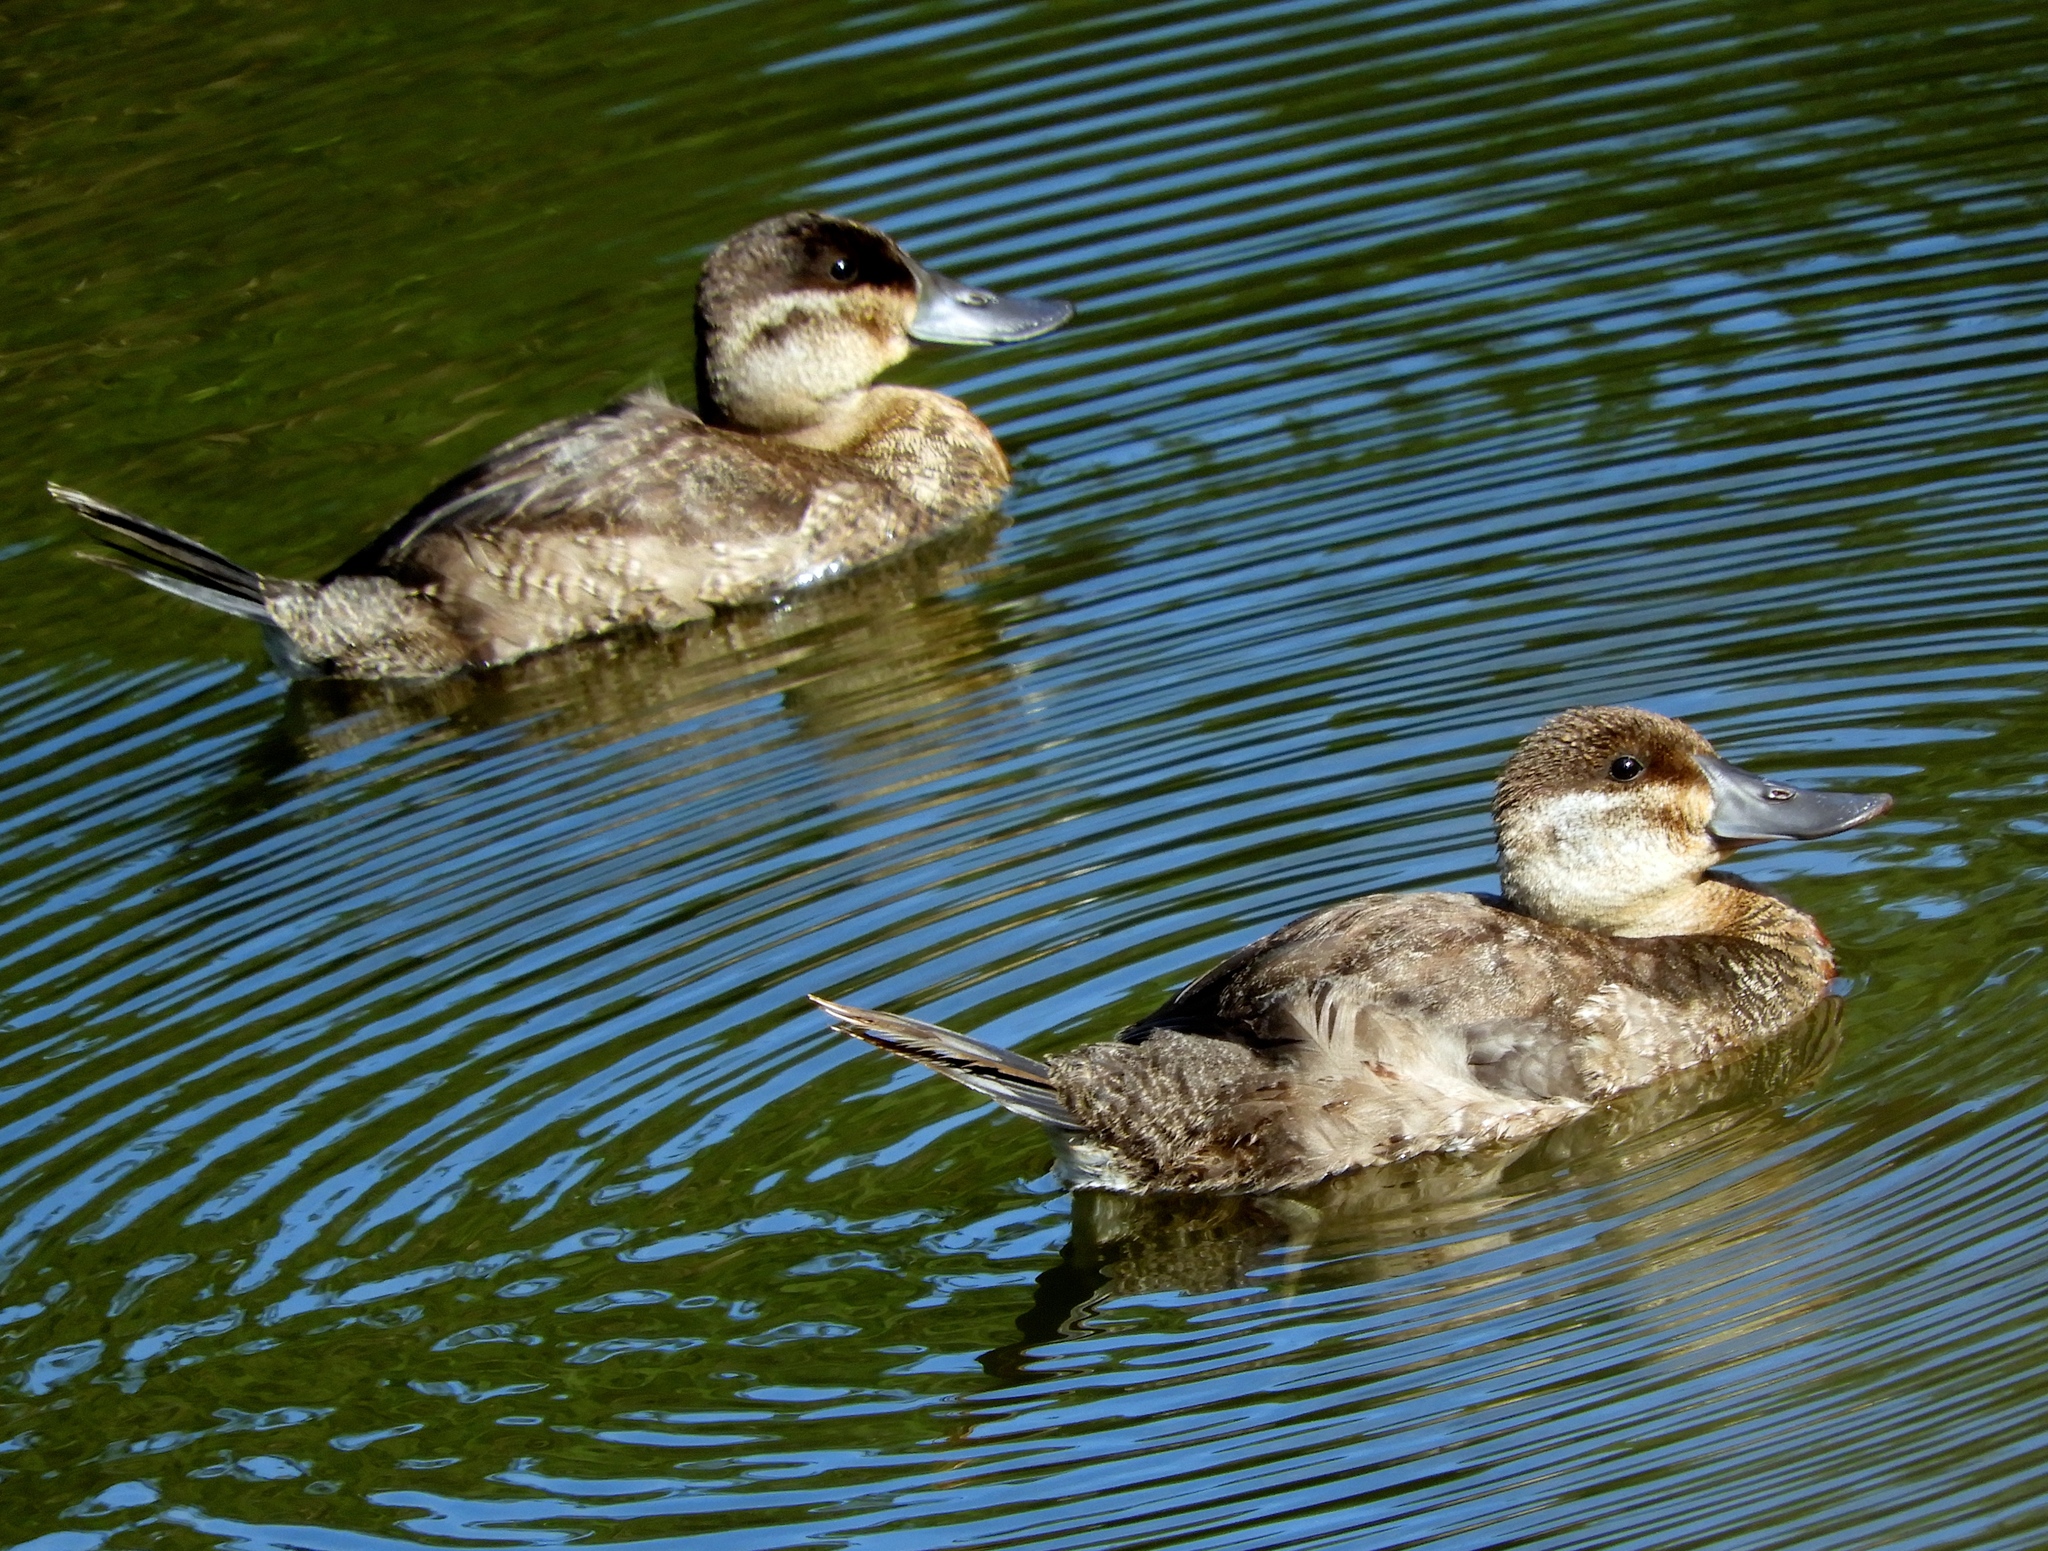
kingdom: Animalia
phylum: Chordata
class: Aves
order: Anseriformes
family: Anatidae
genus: Oxyura
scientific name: Oxyura jamaicensis
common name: Ruddy duck
